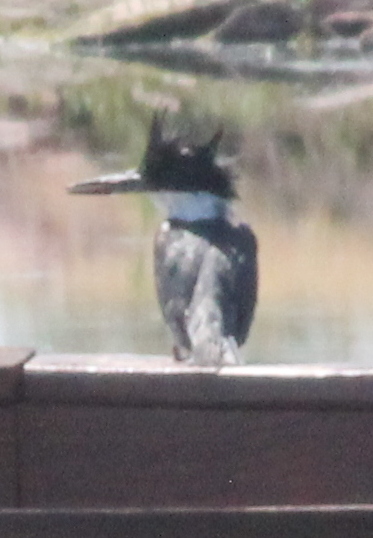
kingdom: Animalia
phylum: Chordata
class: Aves
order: Coraciiformes
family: Alcedinidae
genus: Megaceryle
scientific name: Megaceryle alcyon
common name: Belted kingfisher
